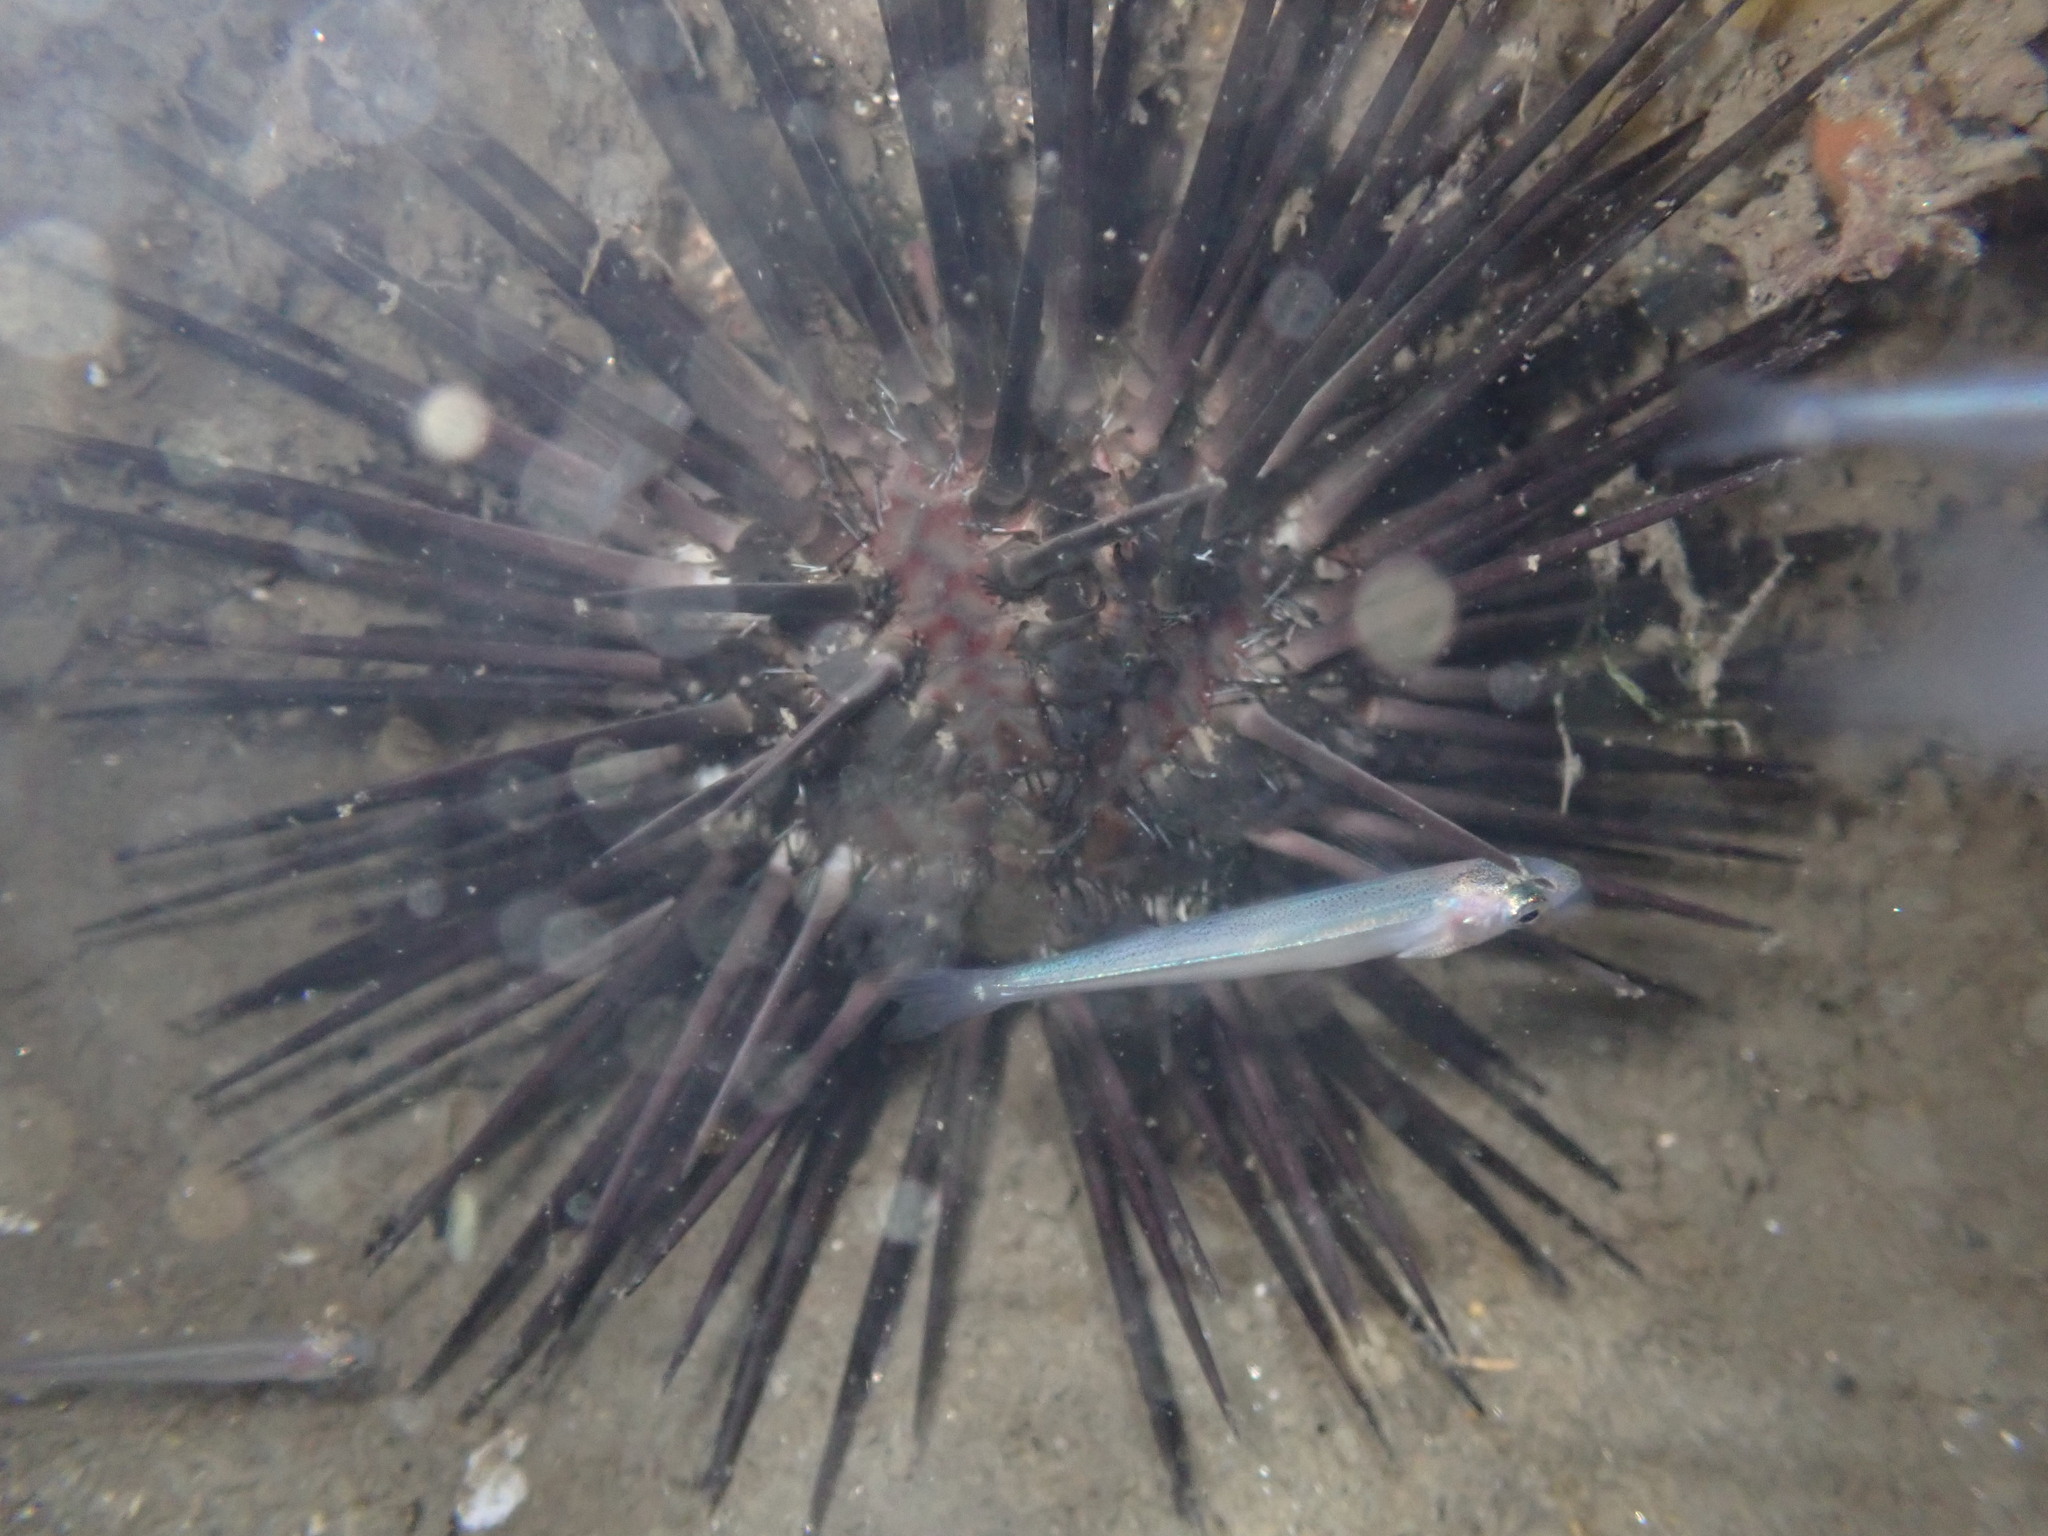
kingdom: Animalia
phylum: Echinodermata
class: Echinoidea
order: Arbacioida
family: Arbaciidae
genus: Arbacia
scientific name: Arbacia stellata
